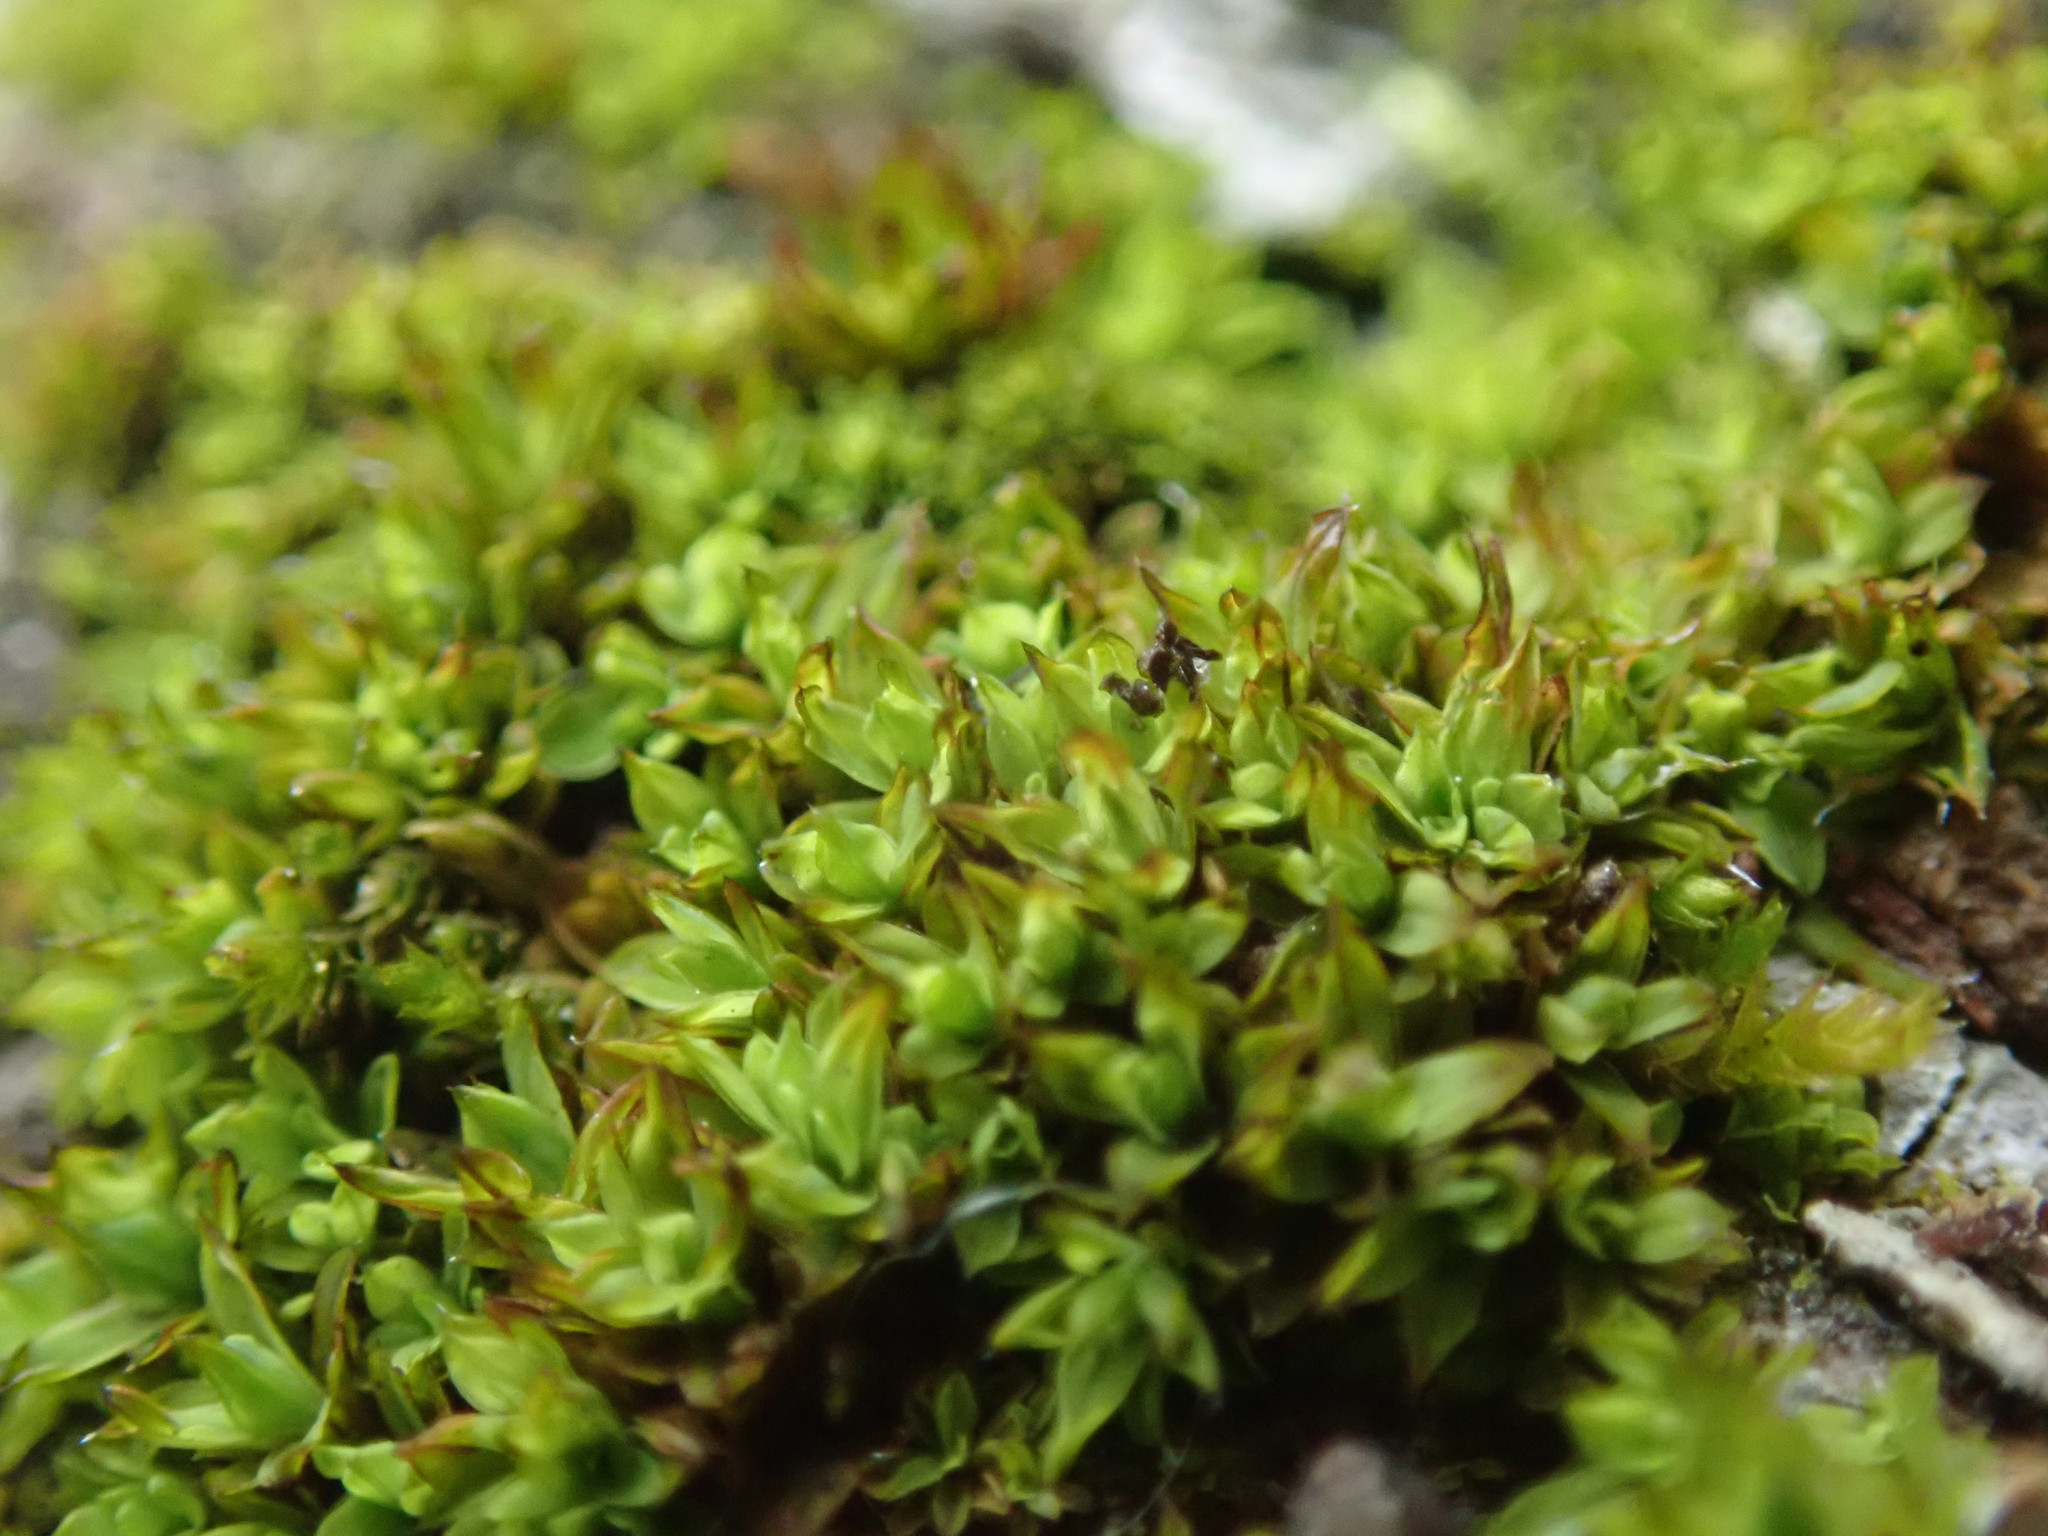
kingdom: Plantae
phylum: Bryophyta
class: Bryopsida
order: Pottiales
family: Pottiaceae
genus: Syntrichia
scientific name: Syntrichia laevipila
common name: Small hairy screw-moss
